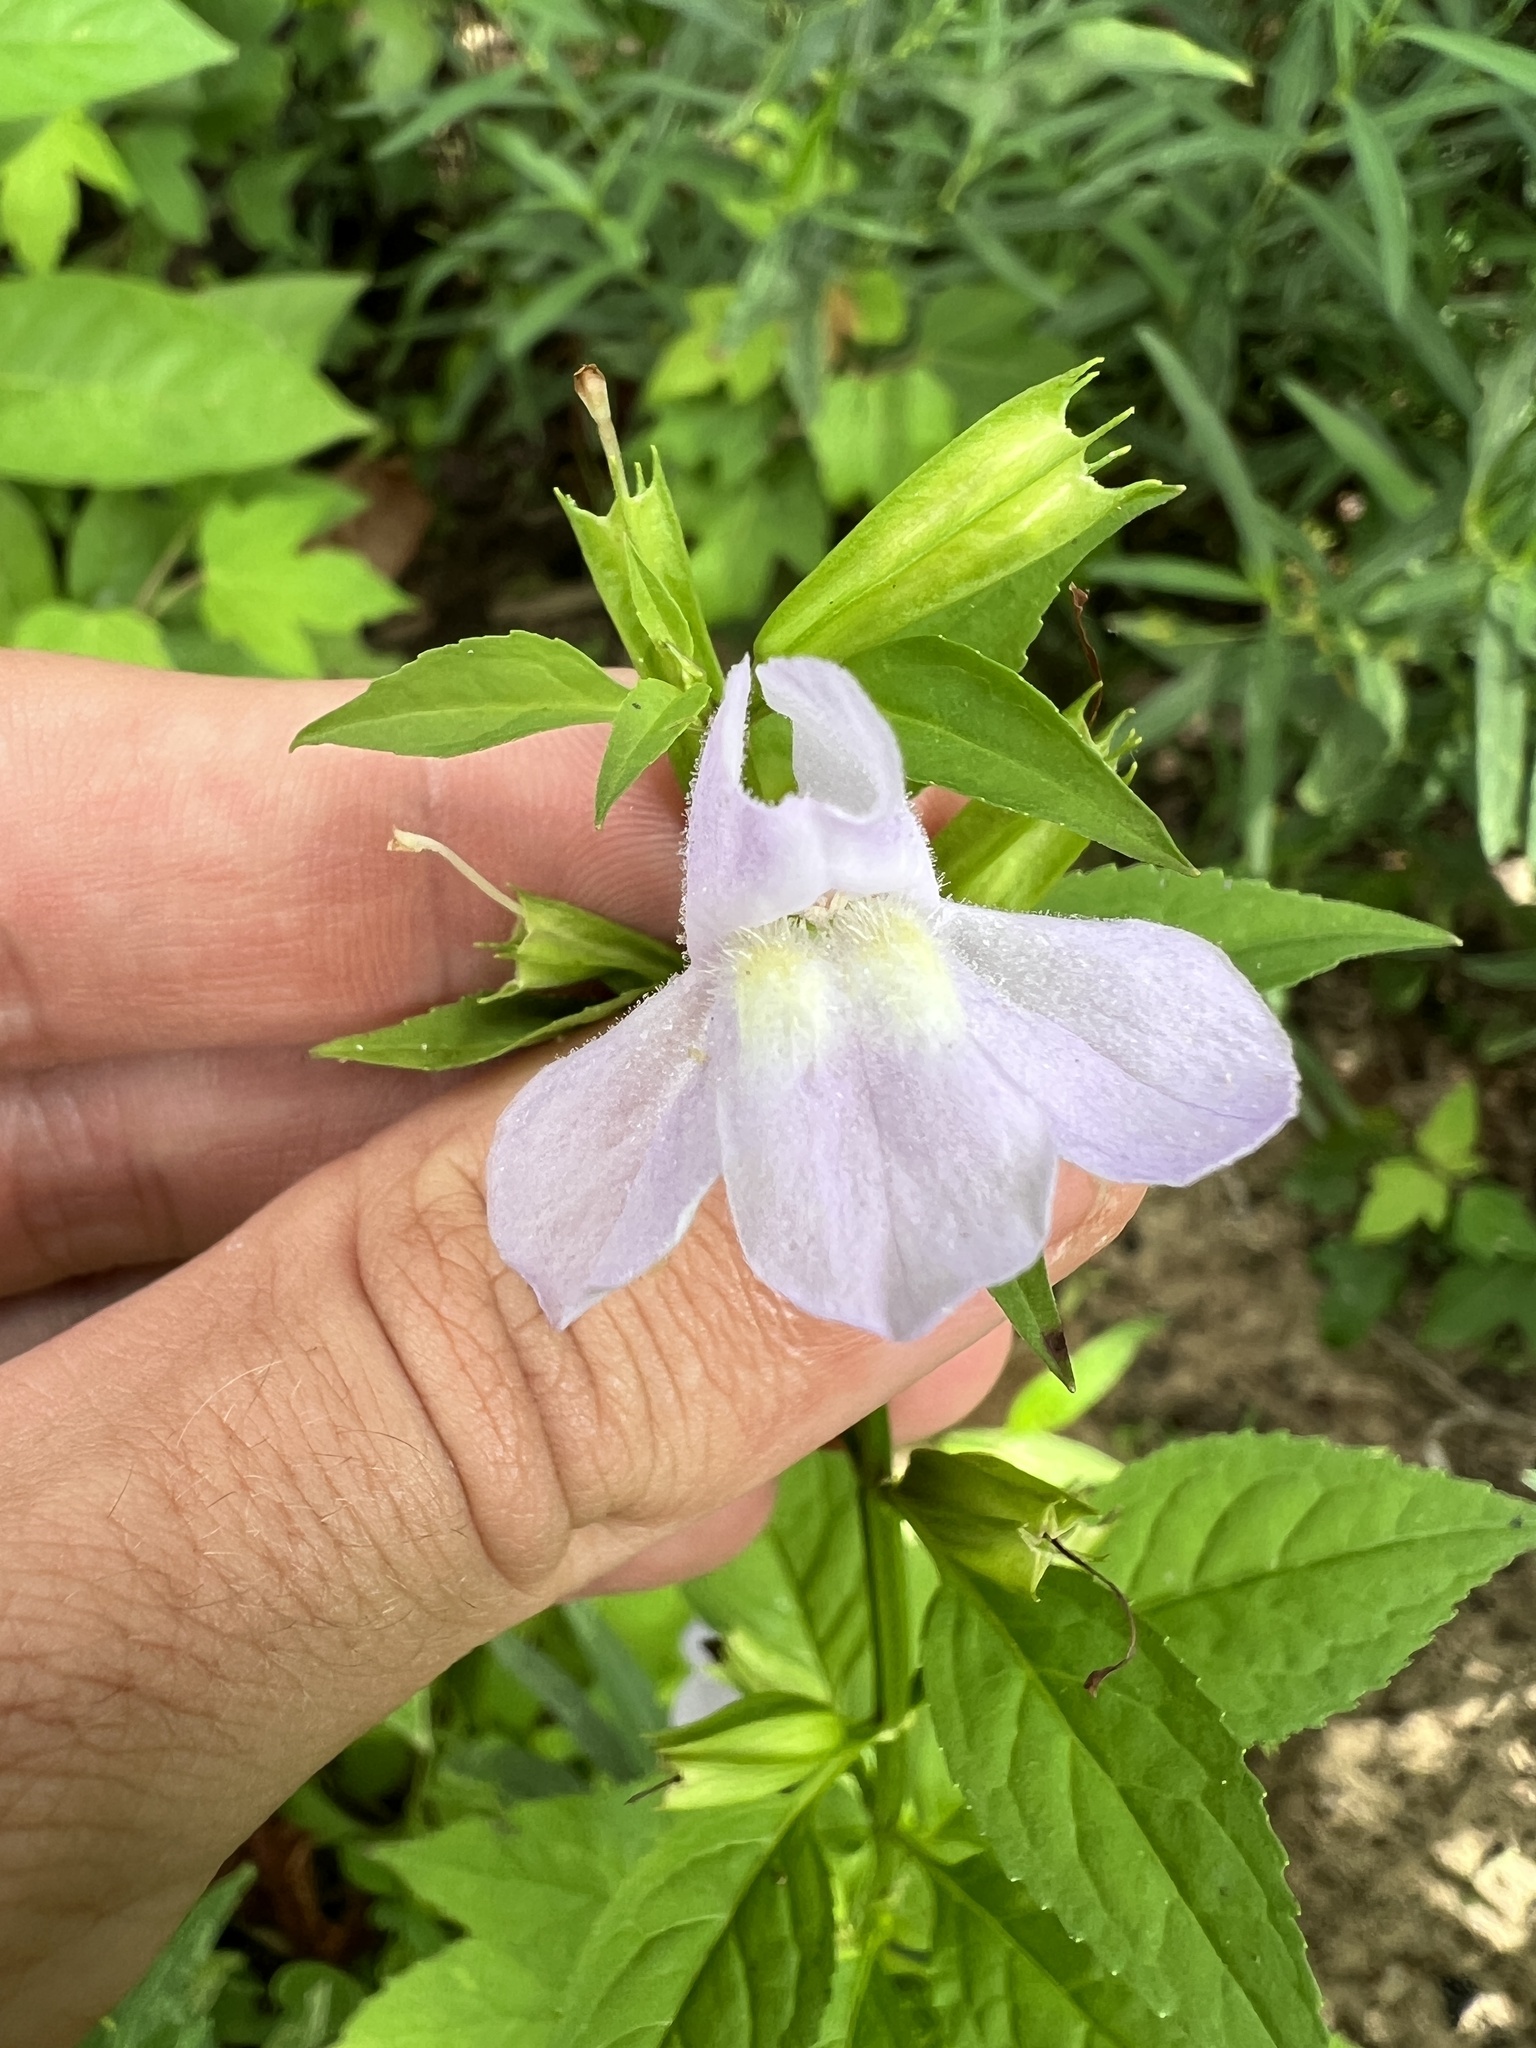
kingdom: Plantae
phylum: Tracheophyta
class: Magnoliopsida
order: Lamiales
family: Phrymaceae
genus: Mimulus
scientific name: Mimulus alatus
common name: Sharp-wing monkey-flower
